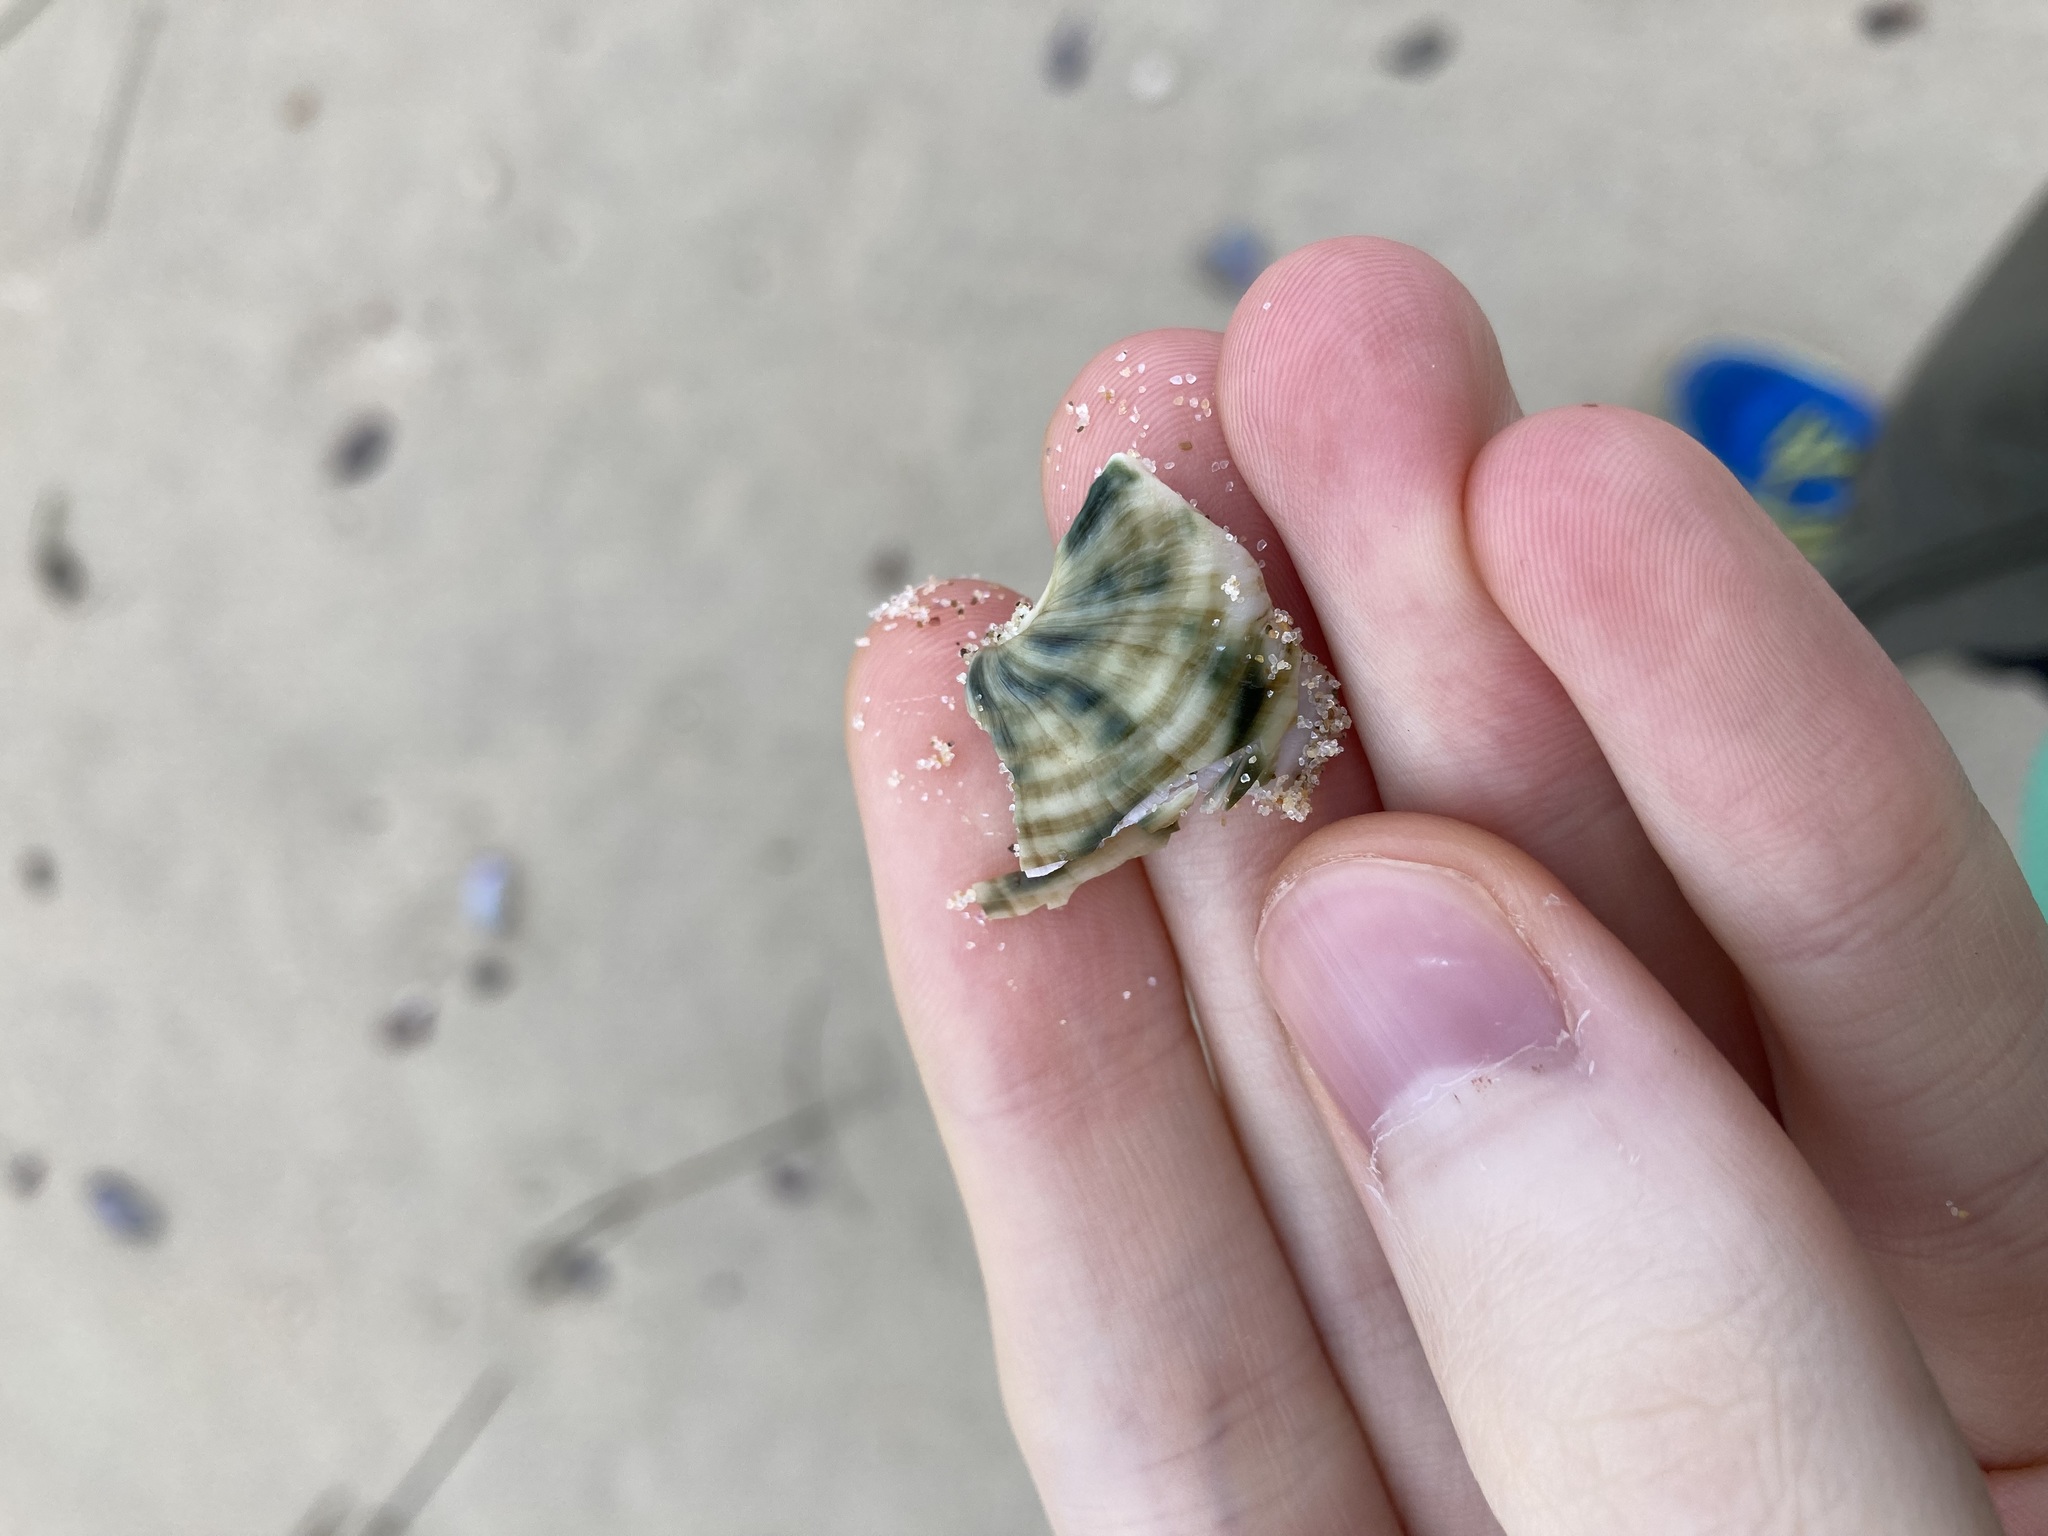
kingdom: Animalia
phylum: Mollusca
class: Gastropoda
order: Trochida
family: Turbinidae
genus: Lunella
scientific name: Lunella undulata
